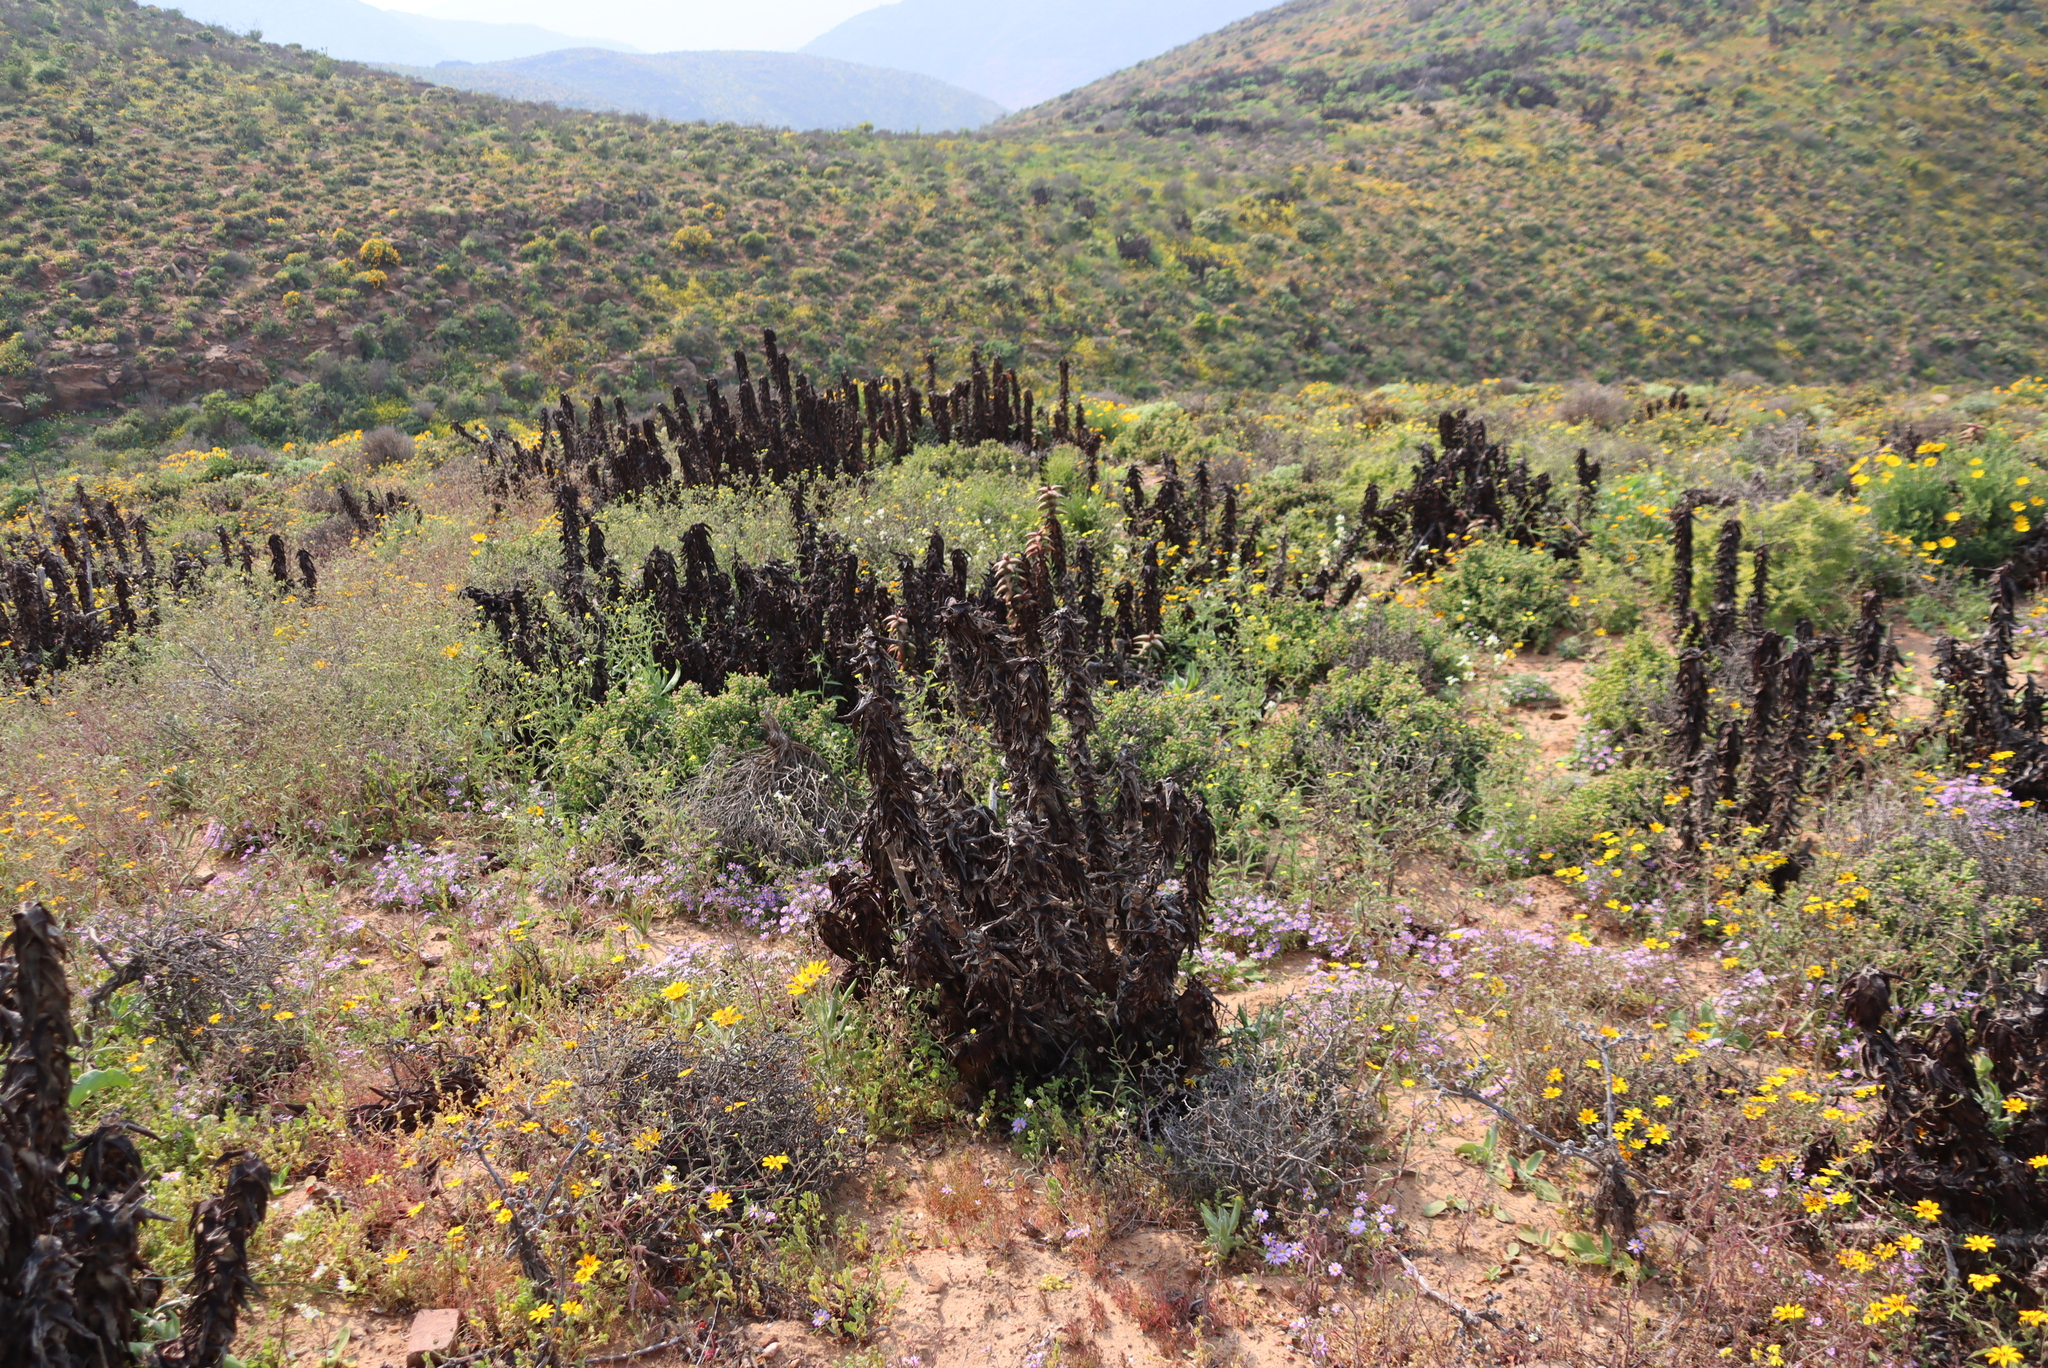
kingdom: Plantae
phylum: Tracheophyta
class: Liliopsida
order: Asparagales
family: Asphodelaceae
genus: Aloe
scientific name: Aloe pearsonii
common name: Pearson's aloe
